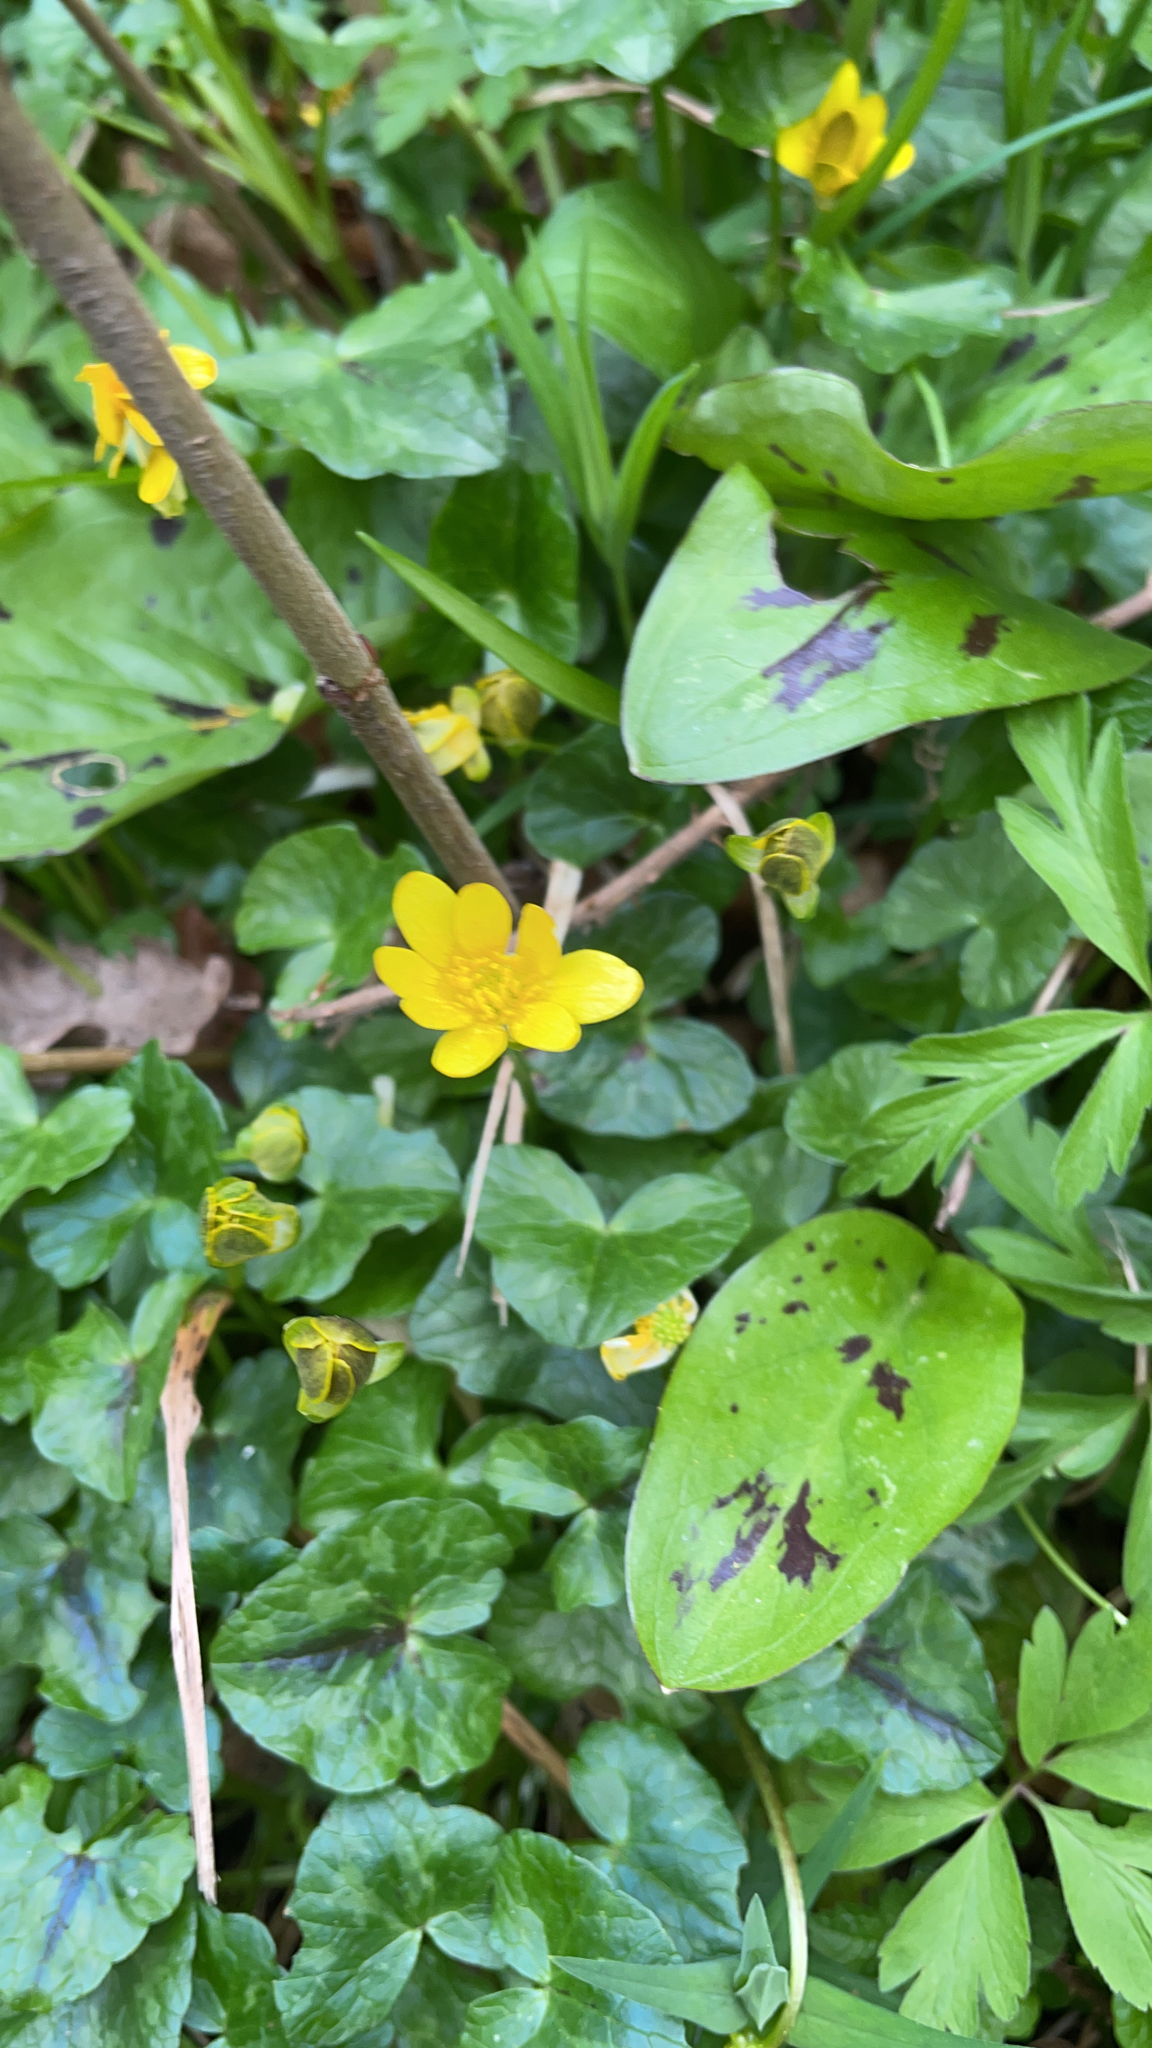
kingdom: Plantae
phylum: Tracheophyta
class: Magnoliopsida
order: Ranunculales
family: Ranunculaceae
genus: Ficaria
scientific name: Ficaria verna
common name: Lesser celandine
